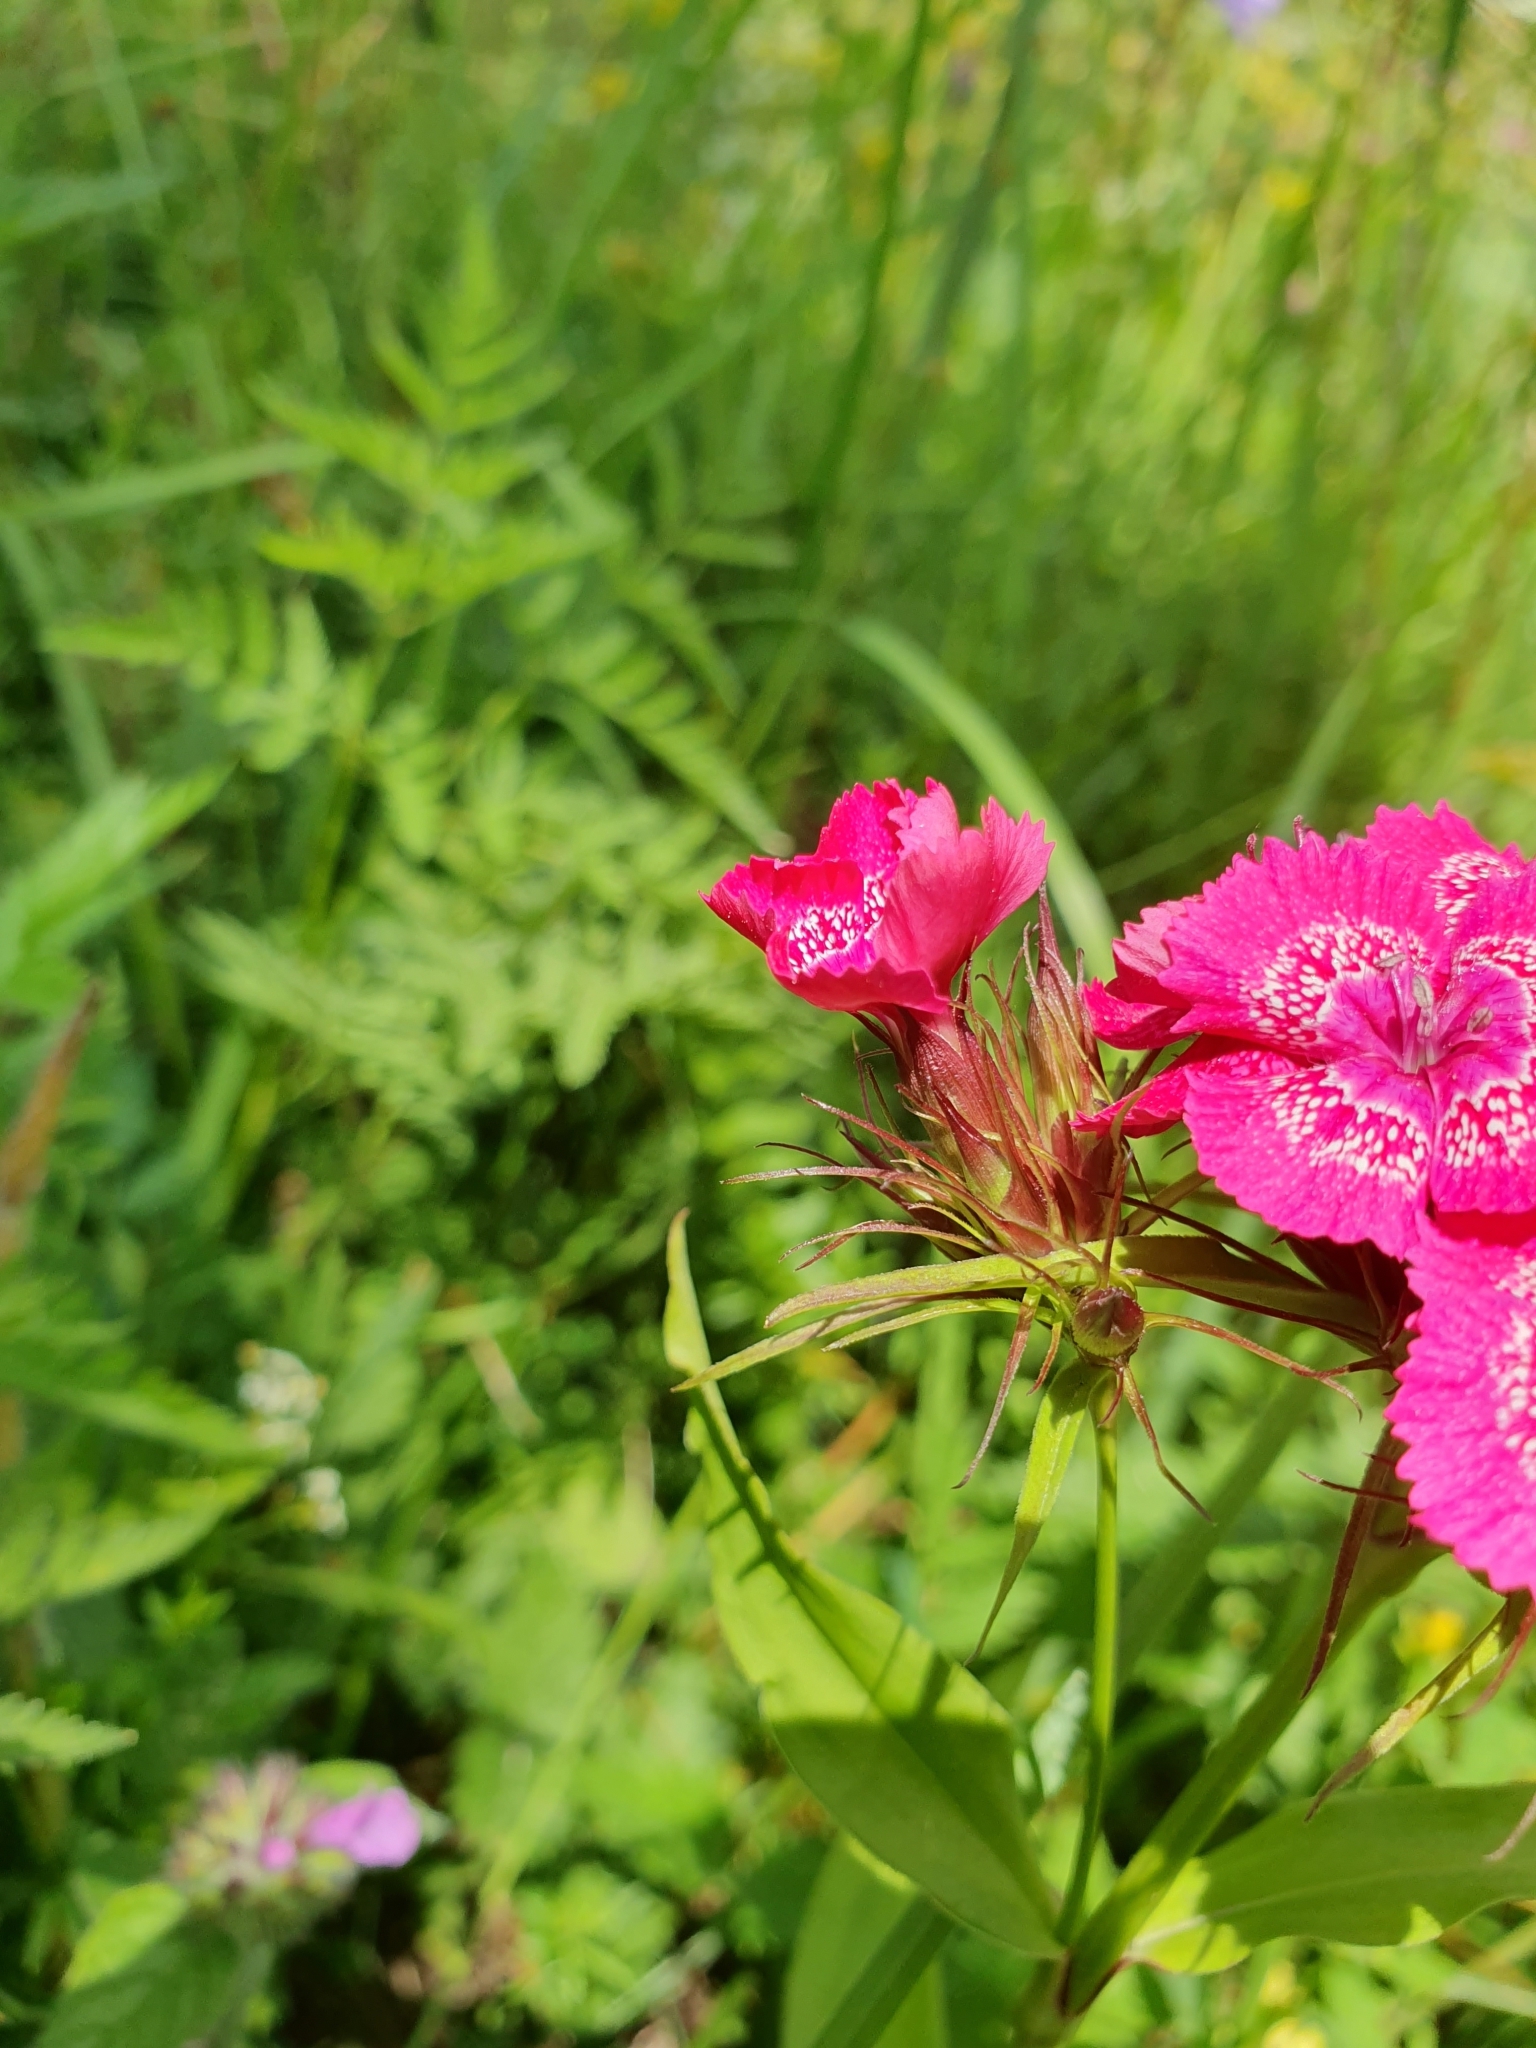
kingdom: Plantae
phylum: Tracheophyta
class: Magnoliopsida
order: Caryophyllales
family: Caryophyllaceae
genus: Dianthus
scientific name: Dianthus barbatus
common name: Sweet-william
